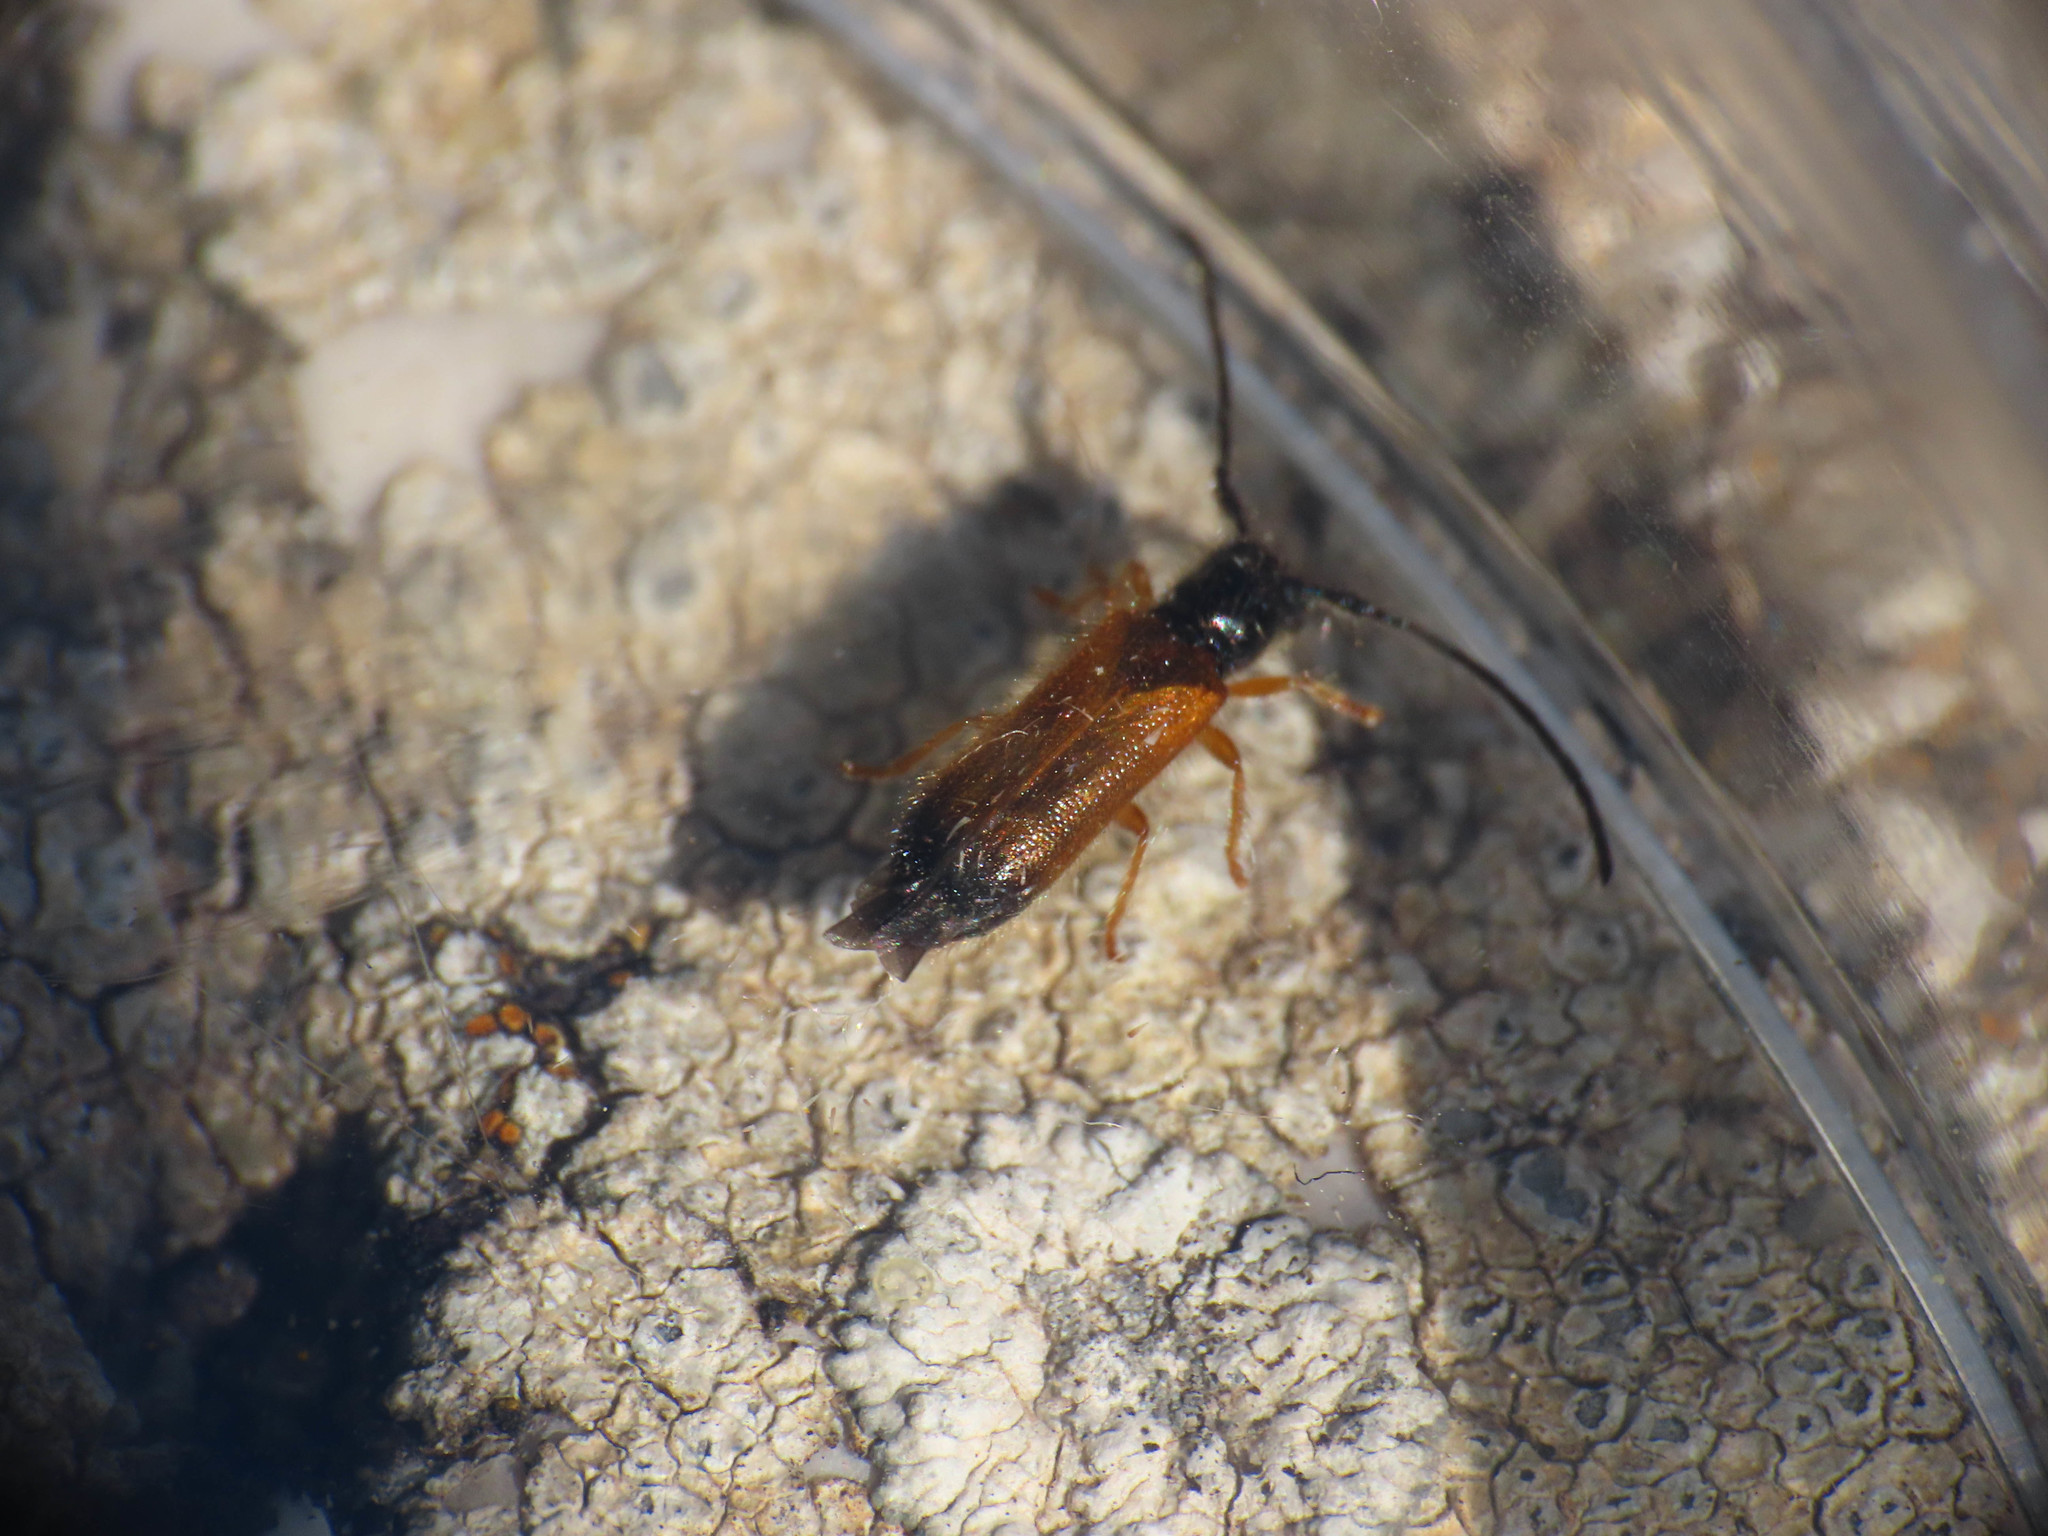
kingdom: Animalia
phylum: Arthropoda
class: Insecta
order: Coleoptera
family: Cerambycidae
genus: Tetrops
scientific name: Tetrops starkii
